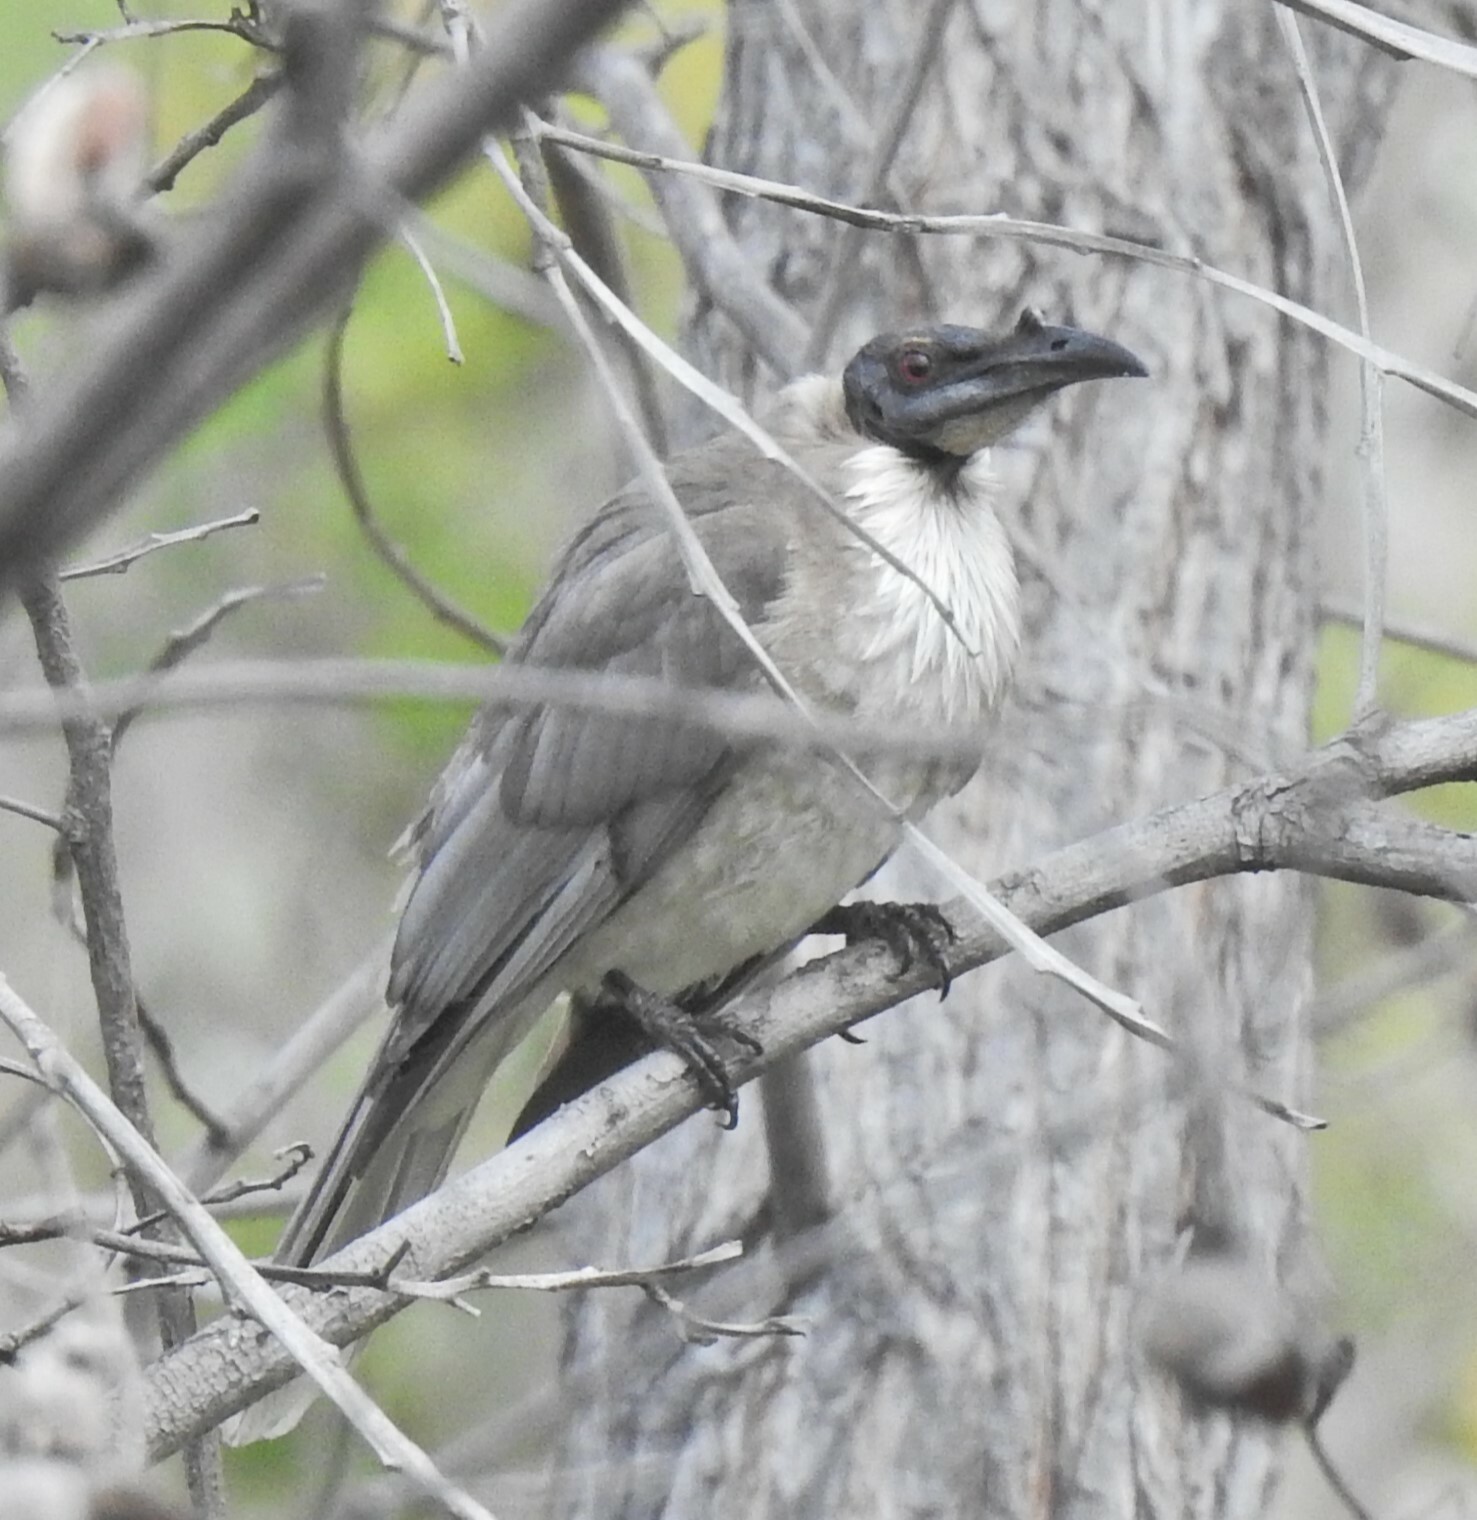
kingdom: Animalia
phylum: Chordata
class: Aves
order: Passeriformes
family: Meliphagidae
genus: Philemon
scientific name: Philemon corniculatus
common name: Noisy friarbird
